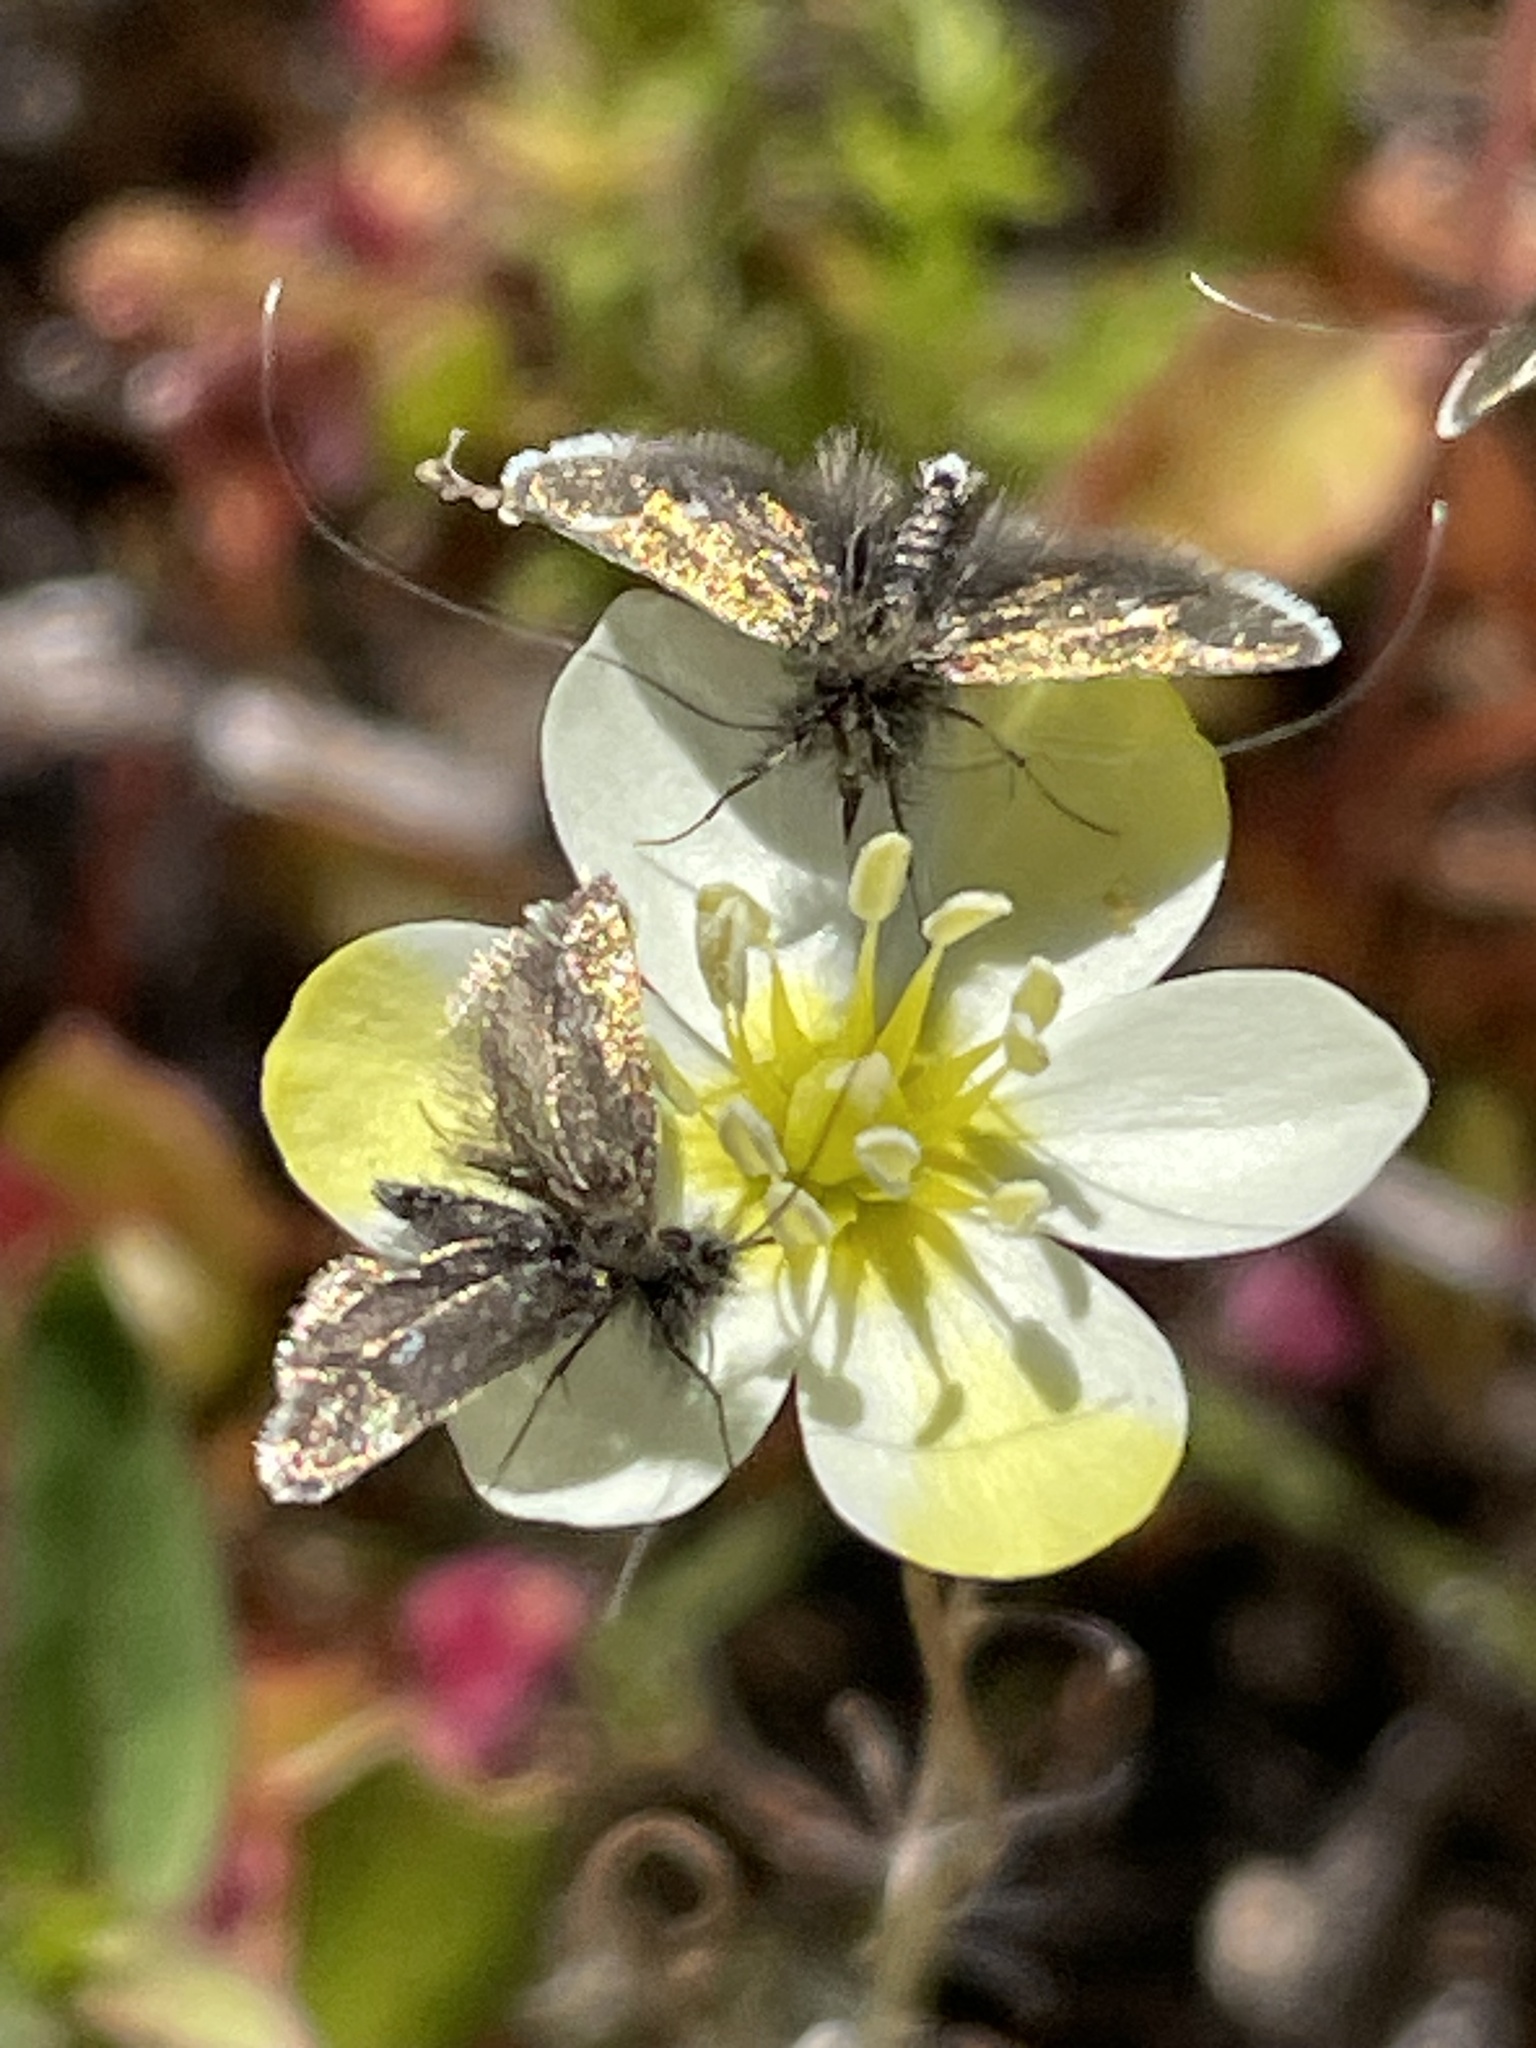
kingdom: Plantae
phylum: Tracheophyta
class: Magnoliopsida
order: Ranunculales
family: Papaveraceae
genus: Platystigma
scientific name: Platystigma lineare
